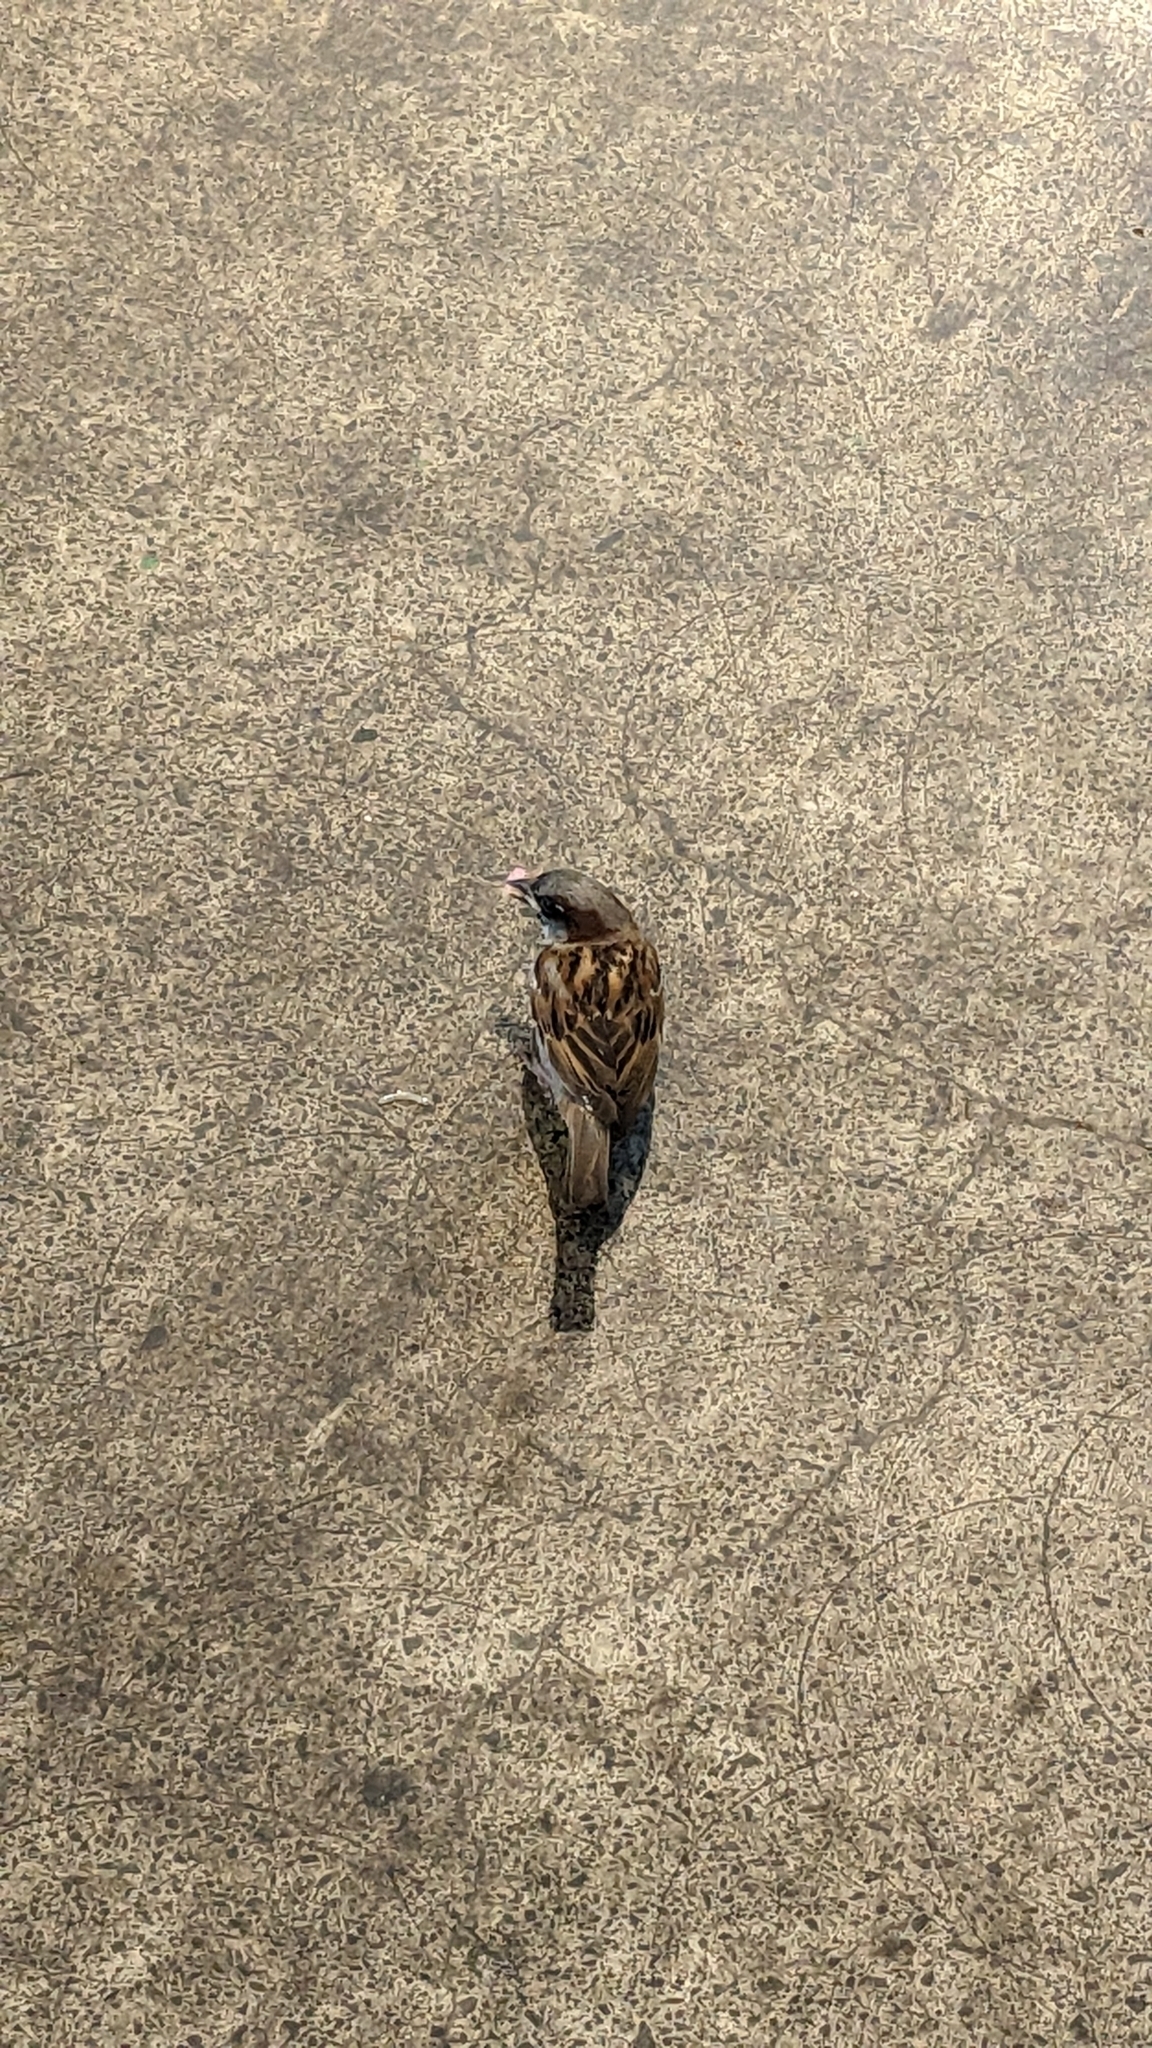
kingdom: Animalia
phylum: Chordata
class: Aves
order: Passeriformes
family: Passeridae
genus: Passer
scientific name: Passer domesticus
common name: House sparrow
